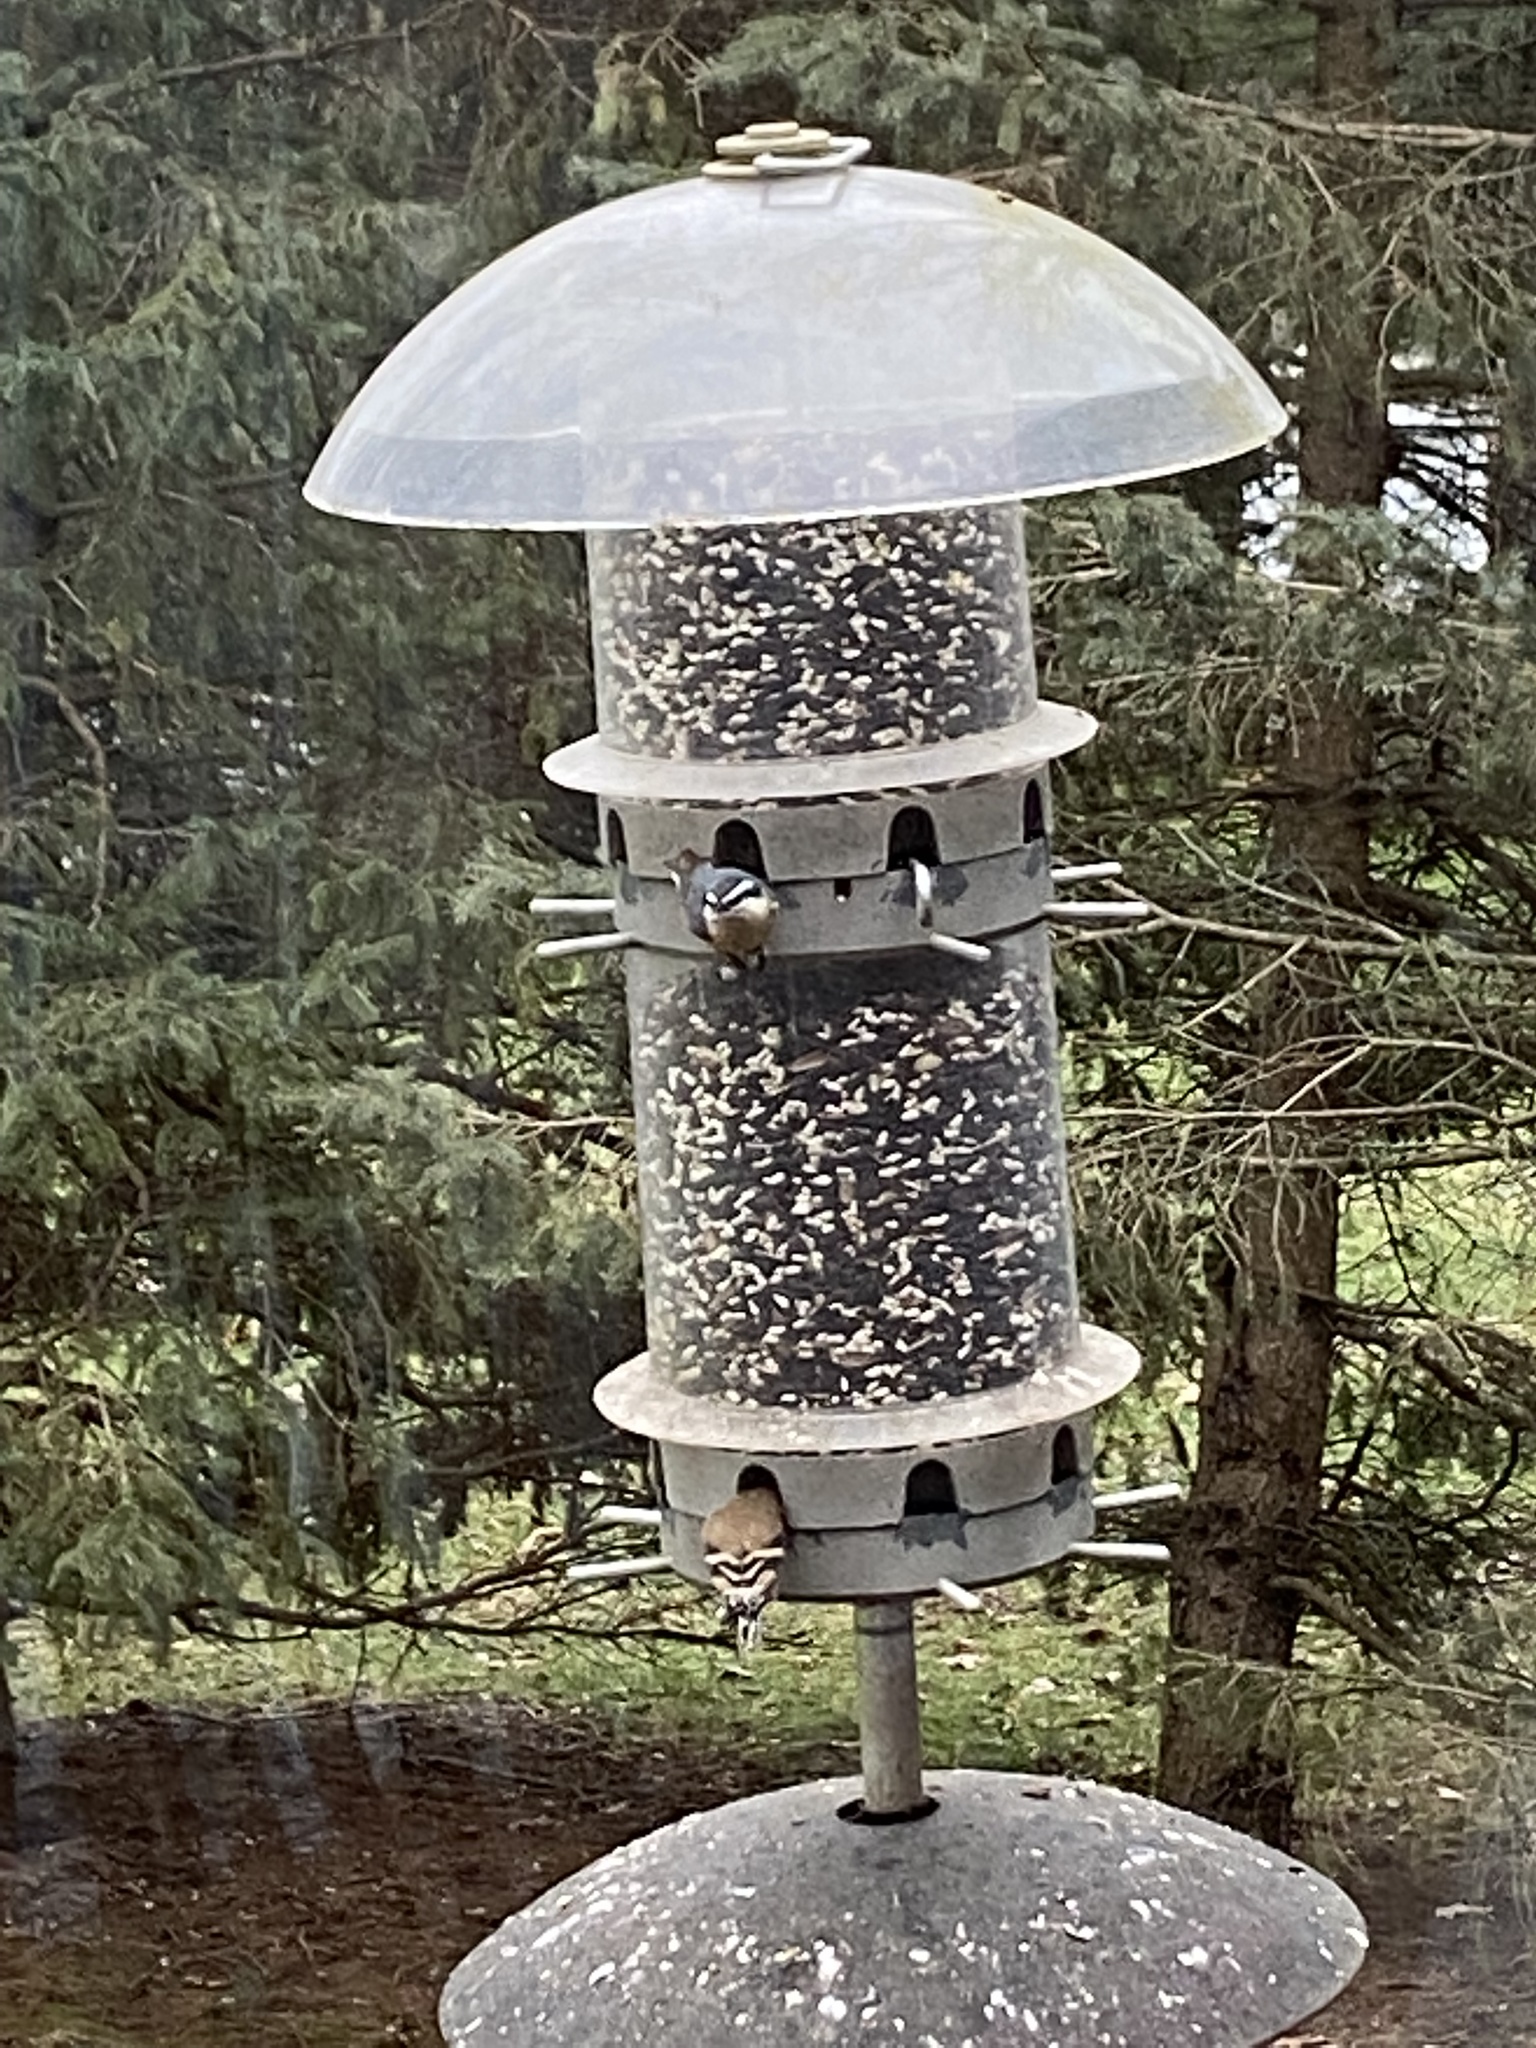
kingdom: Animalia
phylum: Chordata
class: Aves
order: Passeriformes
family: Fringillidae
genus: Spinus
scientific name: Spinus tristis
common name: American goldfinch
